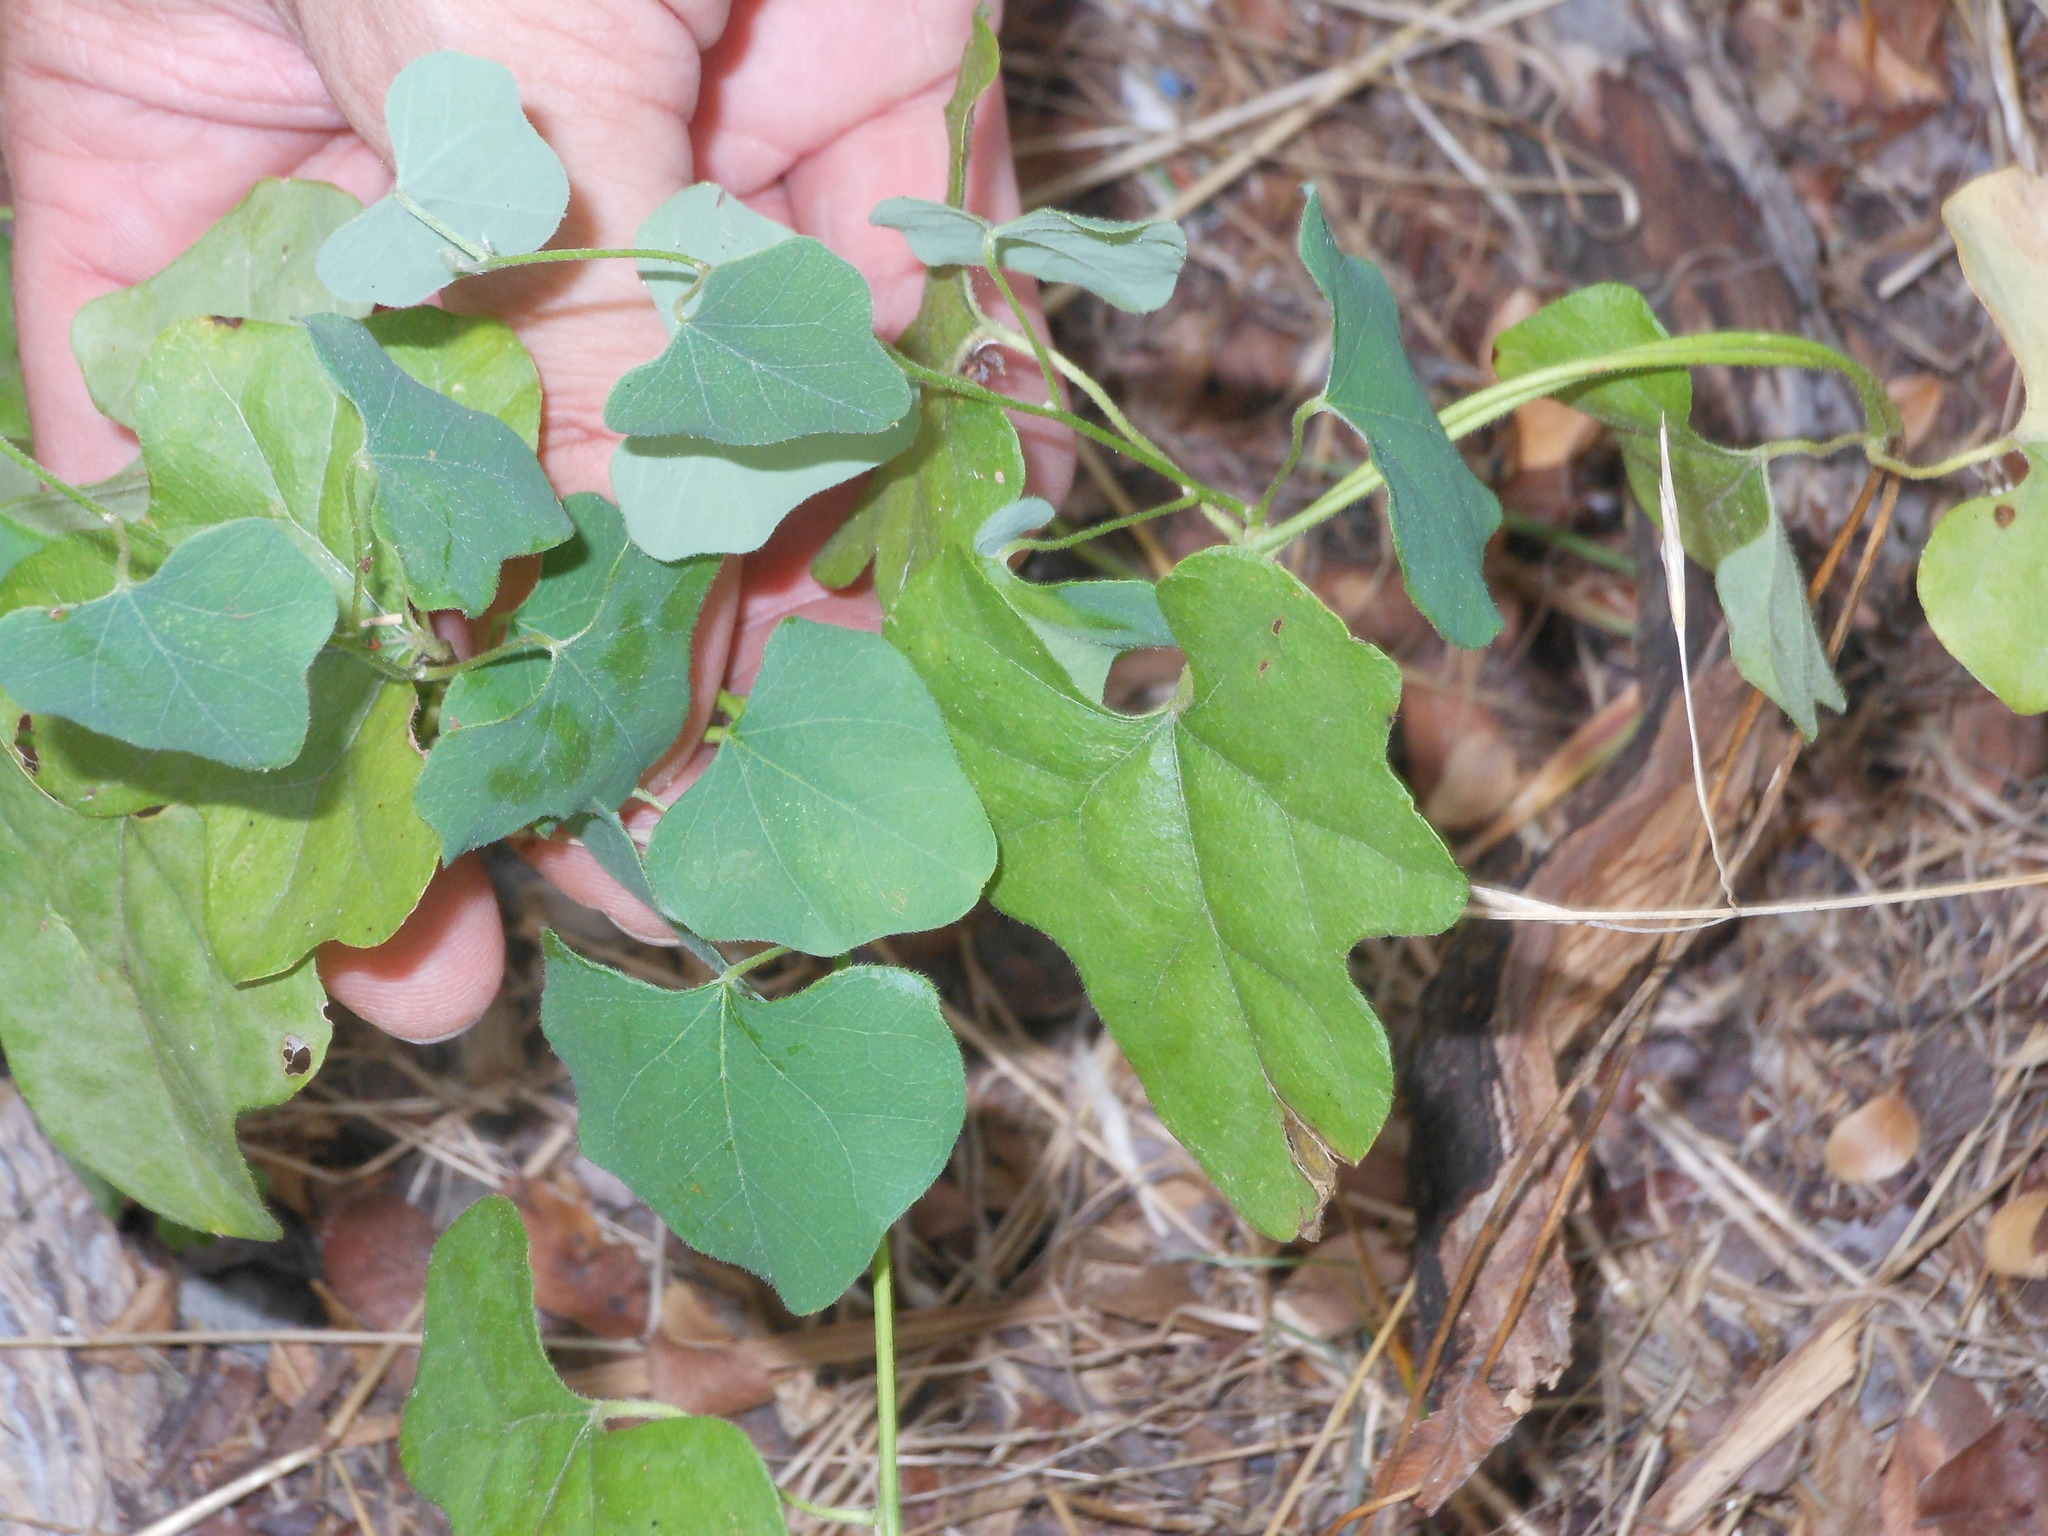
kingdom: Plantae
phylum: Tracheophyta
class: Magnoliopsida
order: Ranunculales
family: Menispermaceae
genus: Cocculus
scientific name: Cocculus carolinus
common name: Carolina moonseed
